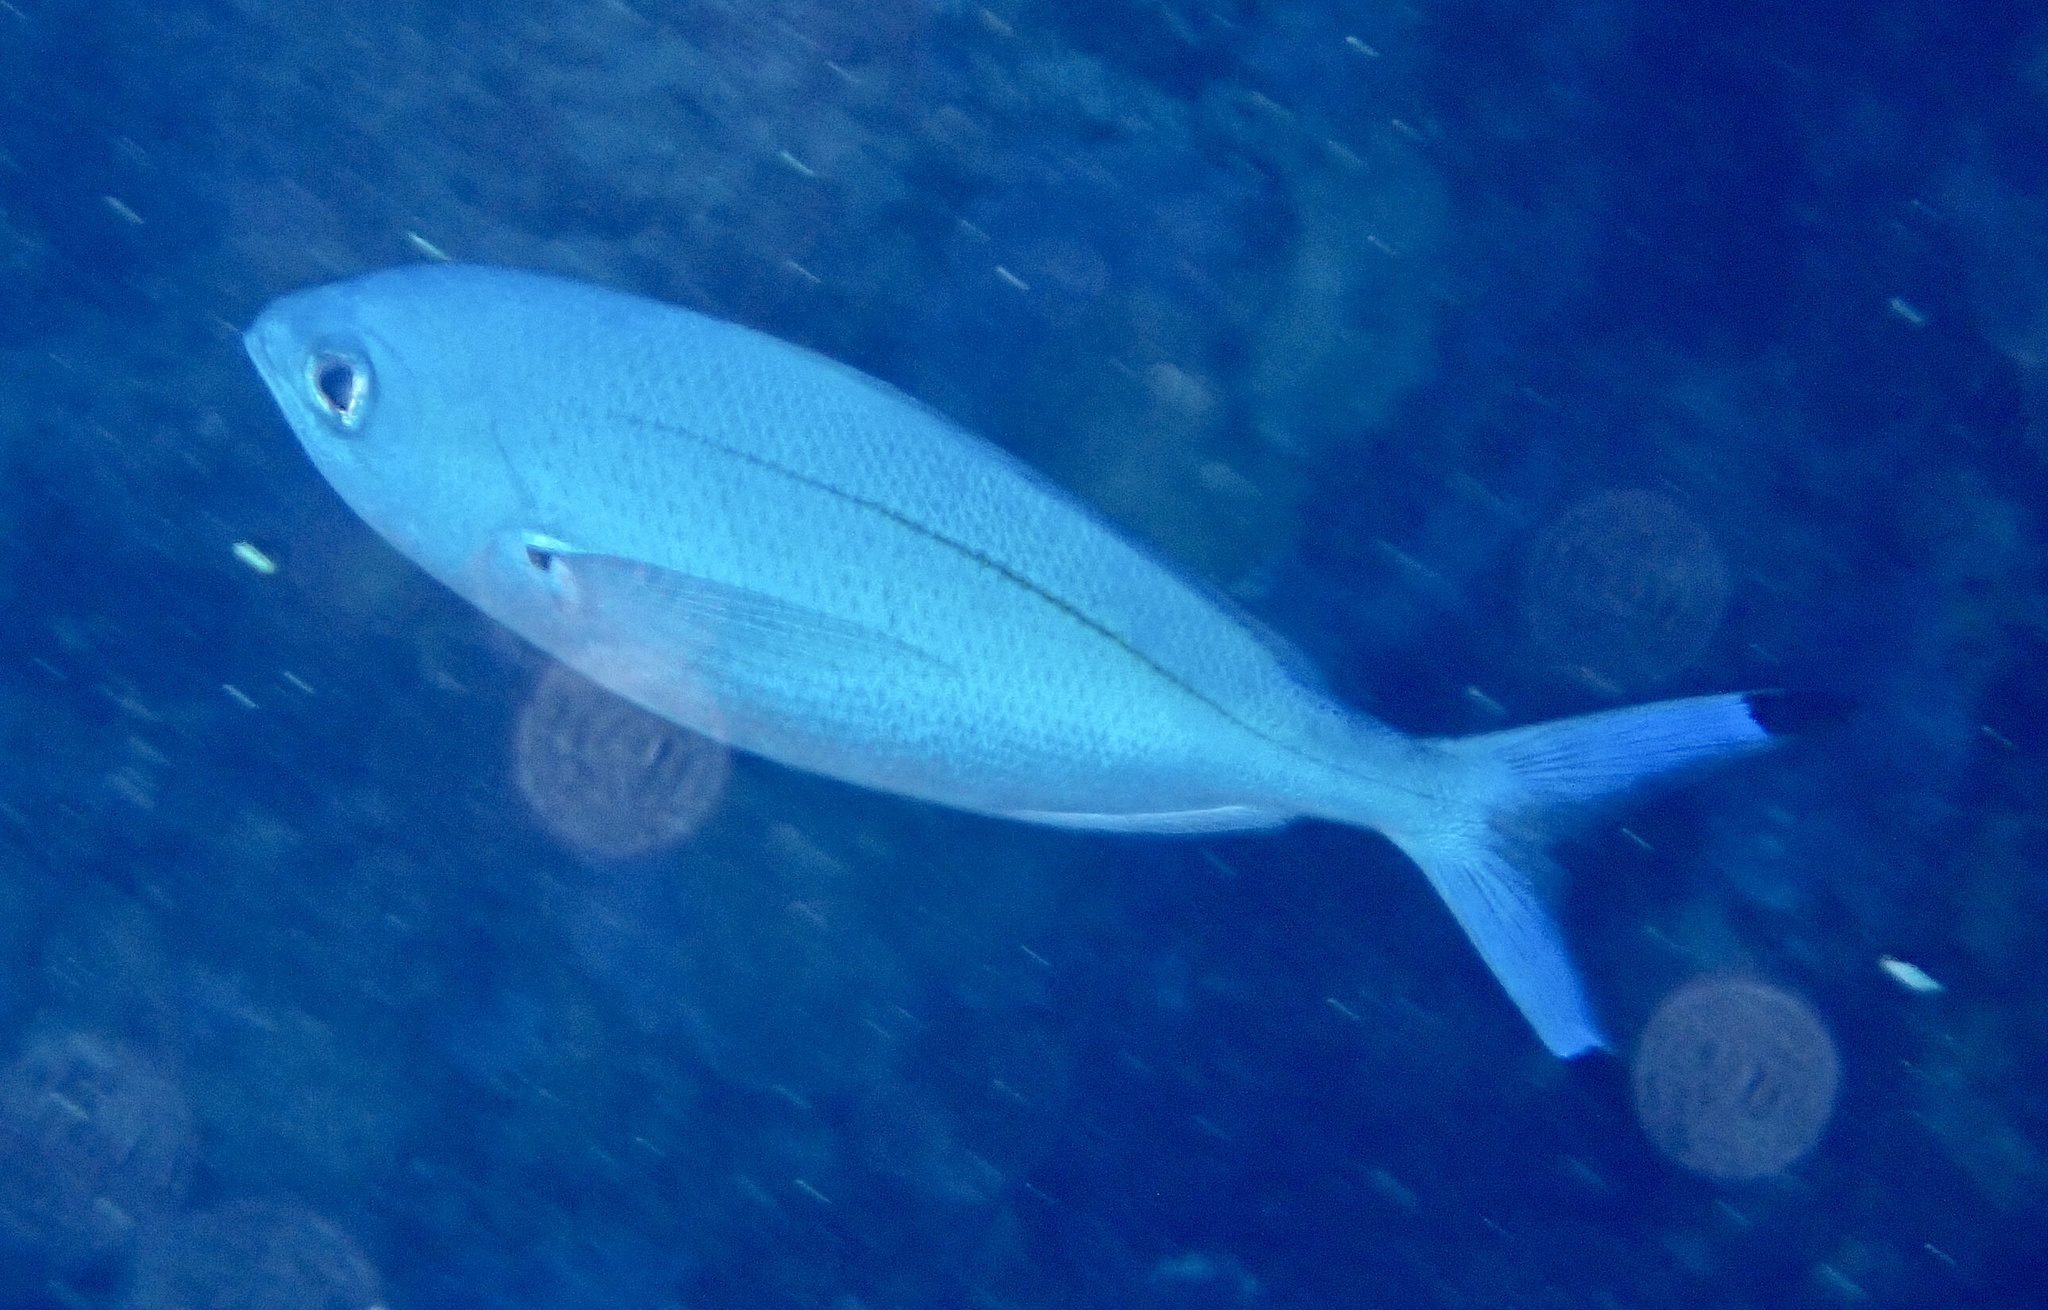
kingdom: Animalia
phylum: Chordata
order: Perciformes
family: Caesionidae
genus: Caesio
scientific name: Caesio lunaris
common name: Blue fusilier
